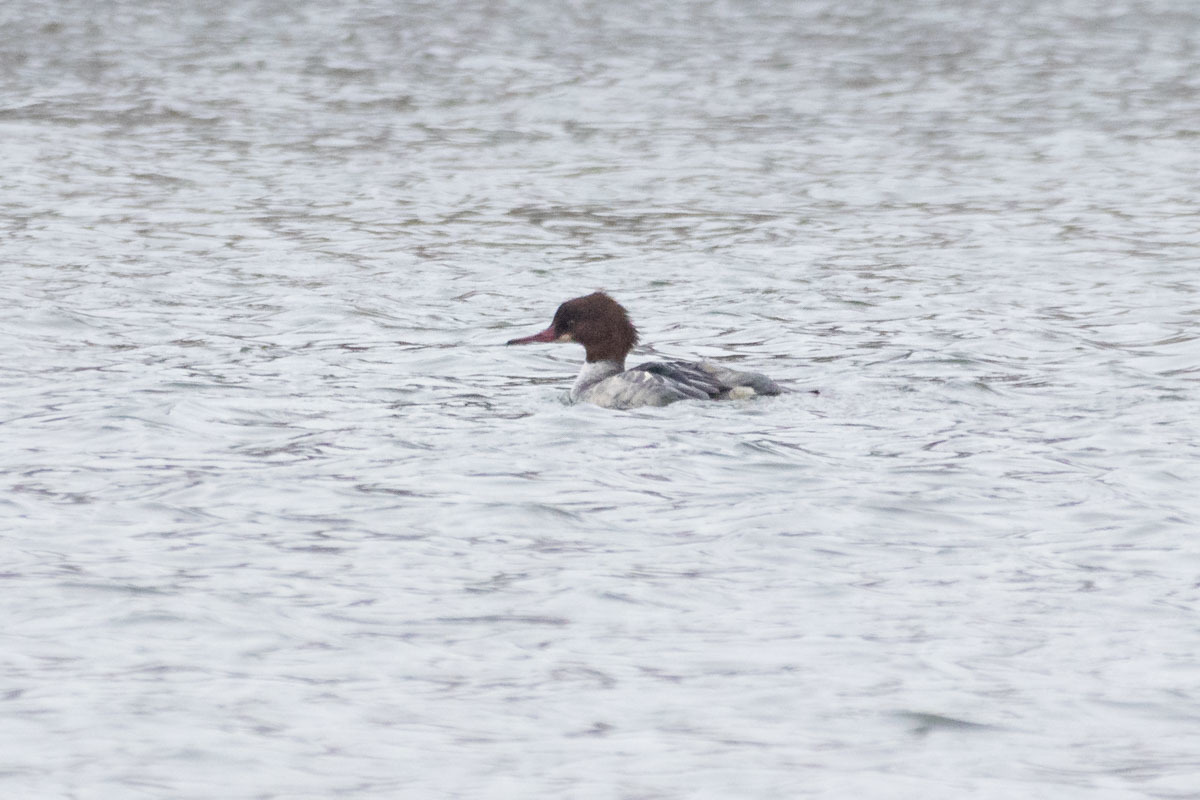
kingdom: Animalia
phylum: Chordata
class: Aves
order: Anseriformes
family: Anatidae
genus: Mergus
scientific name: Mergus merganser
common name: Common merganser
